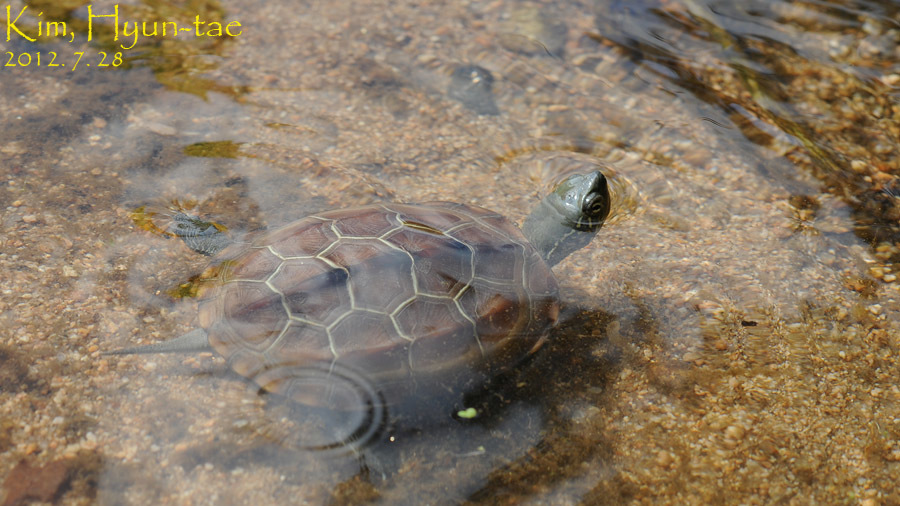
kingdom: Animalia
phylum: Chordata
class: Testudines
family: Geoemydidae
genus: Mauremys
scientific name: Mauremys reevesii
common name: Chinese pond turtle
